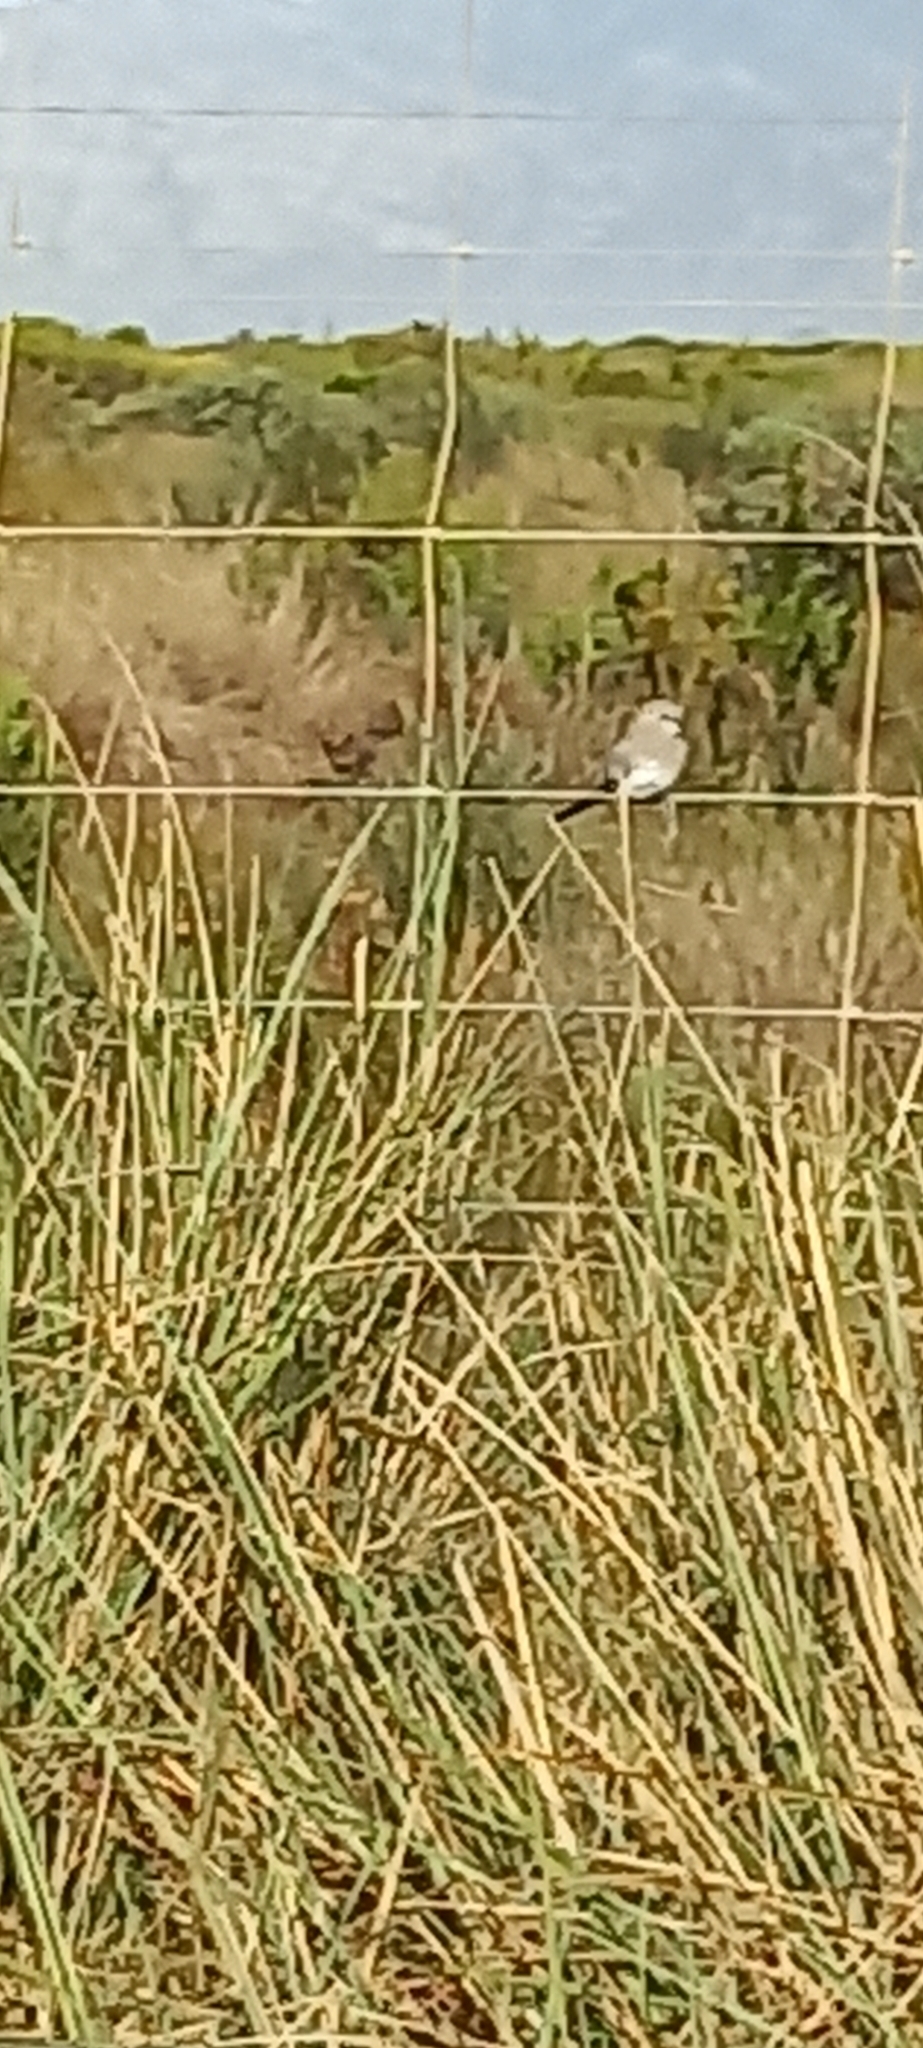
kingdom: Animalia
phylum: Chordata
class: Aves
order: Columbiformes
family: Columbidae
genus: Oena
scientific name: Oena capensis
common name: Namaqua dove
